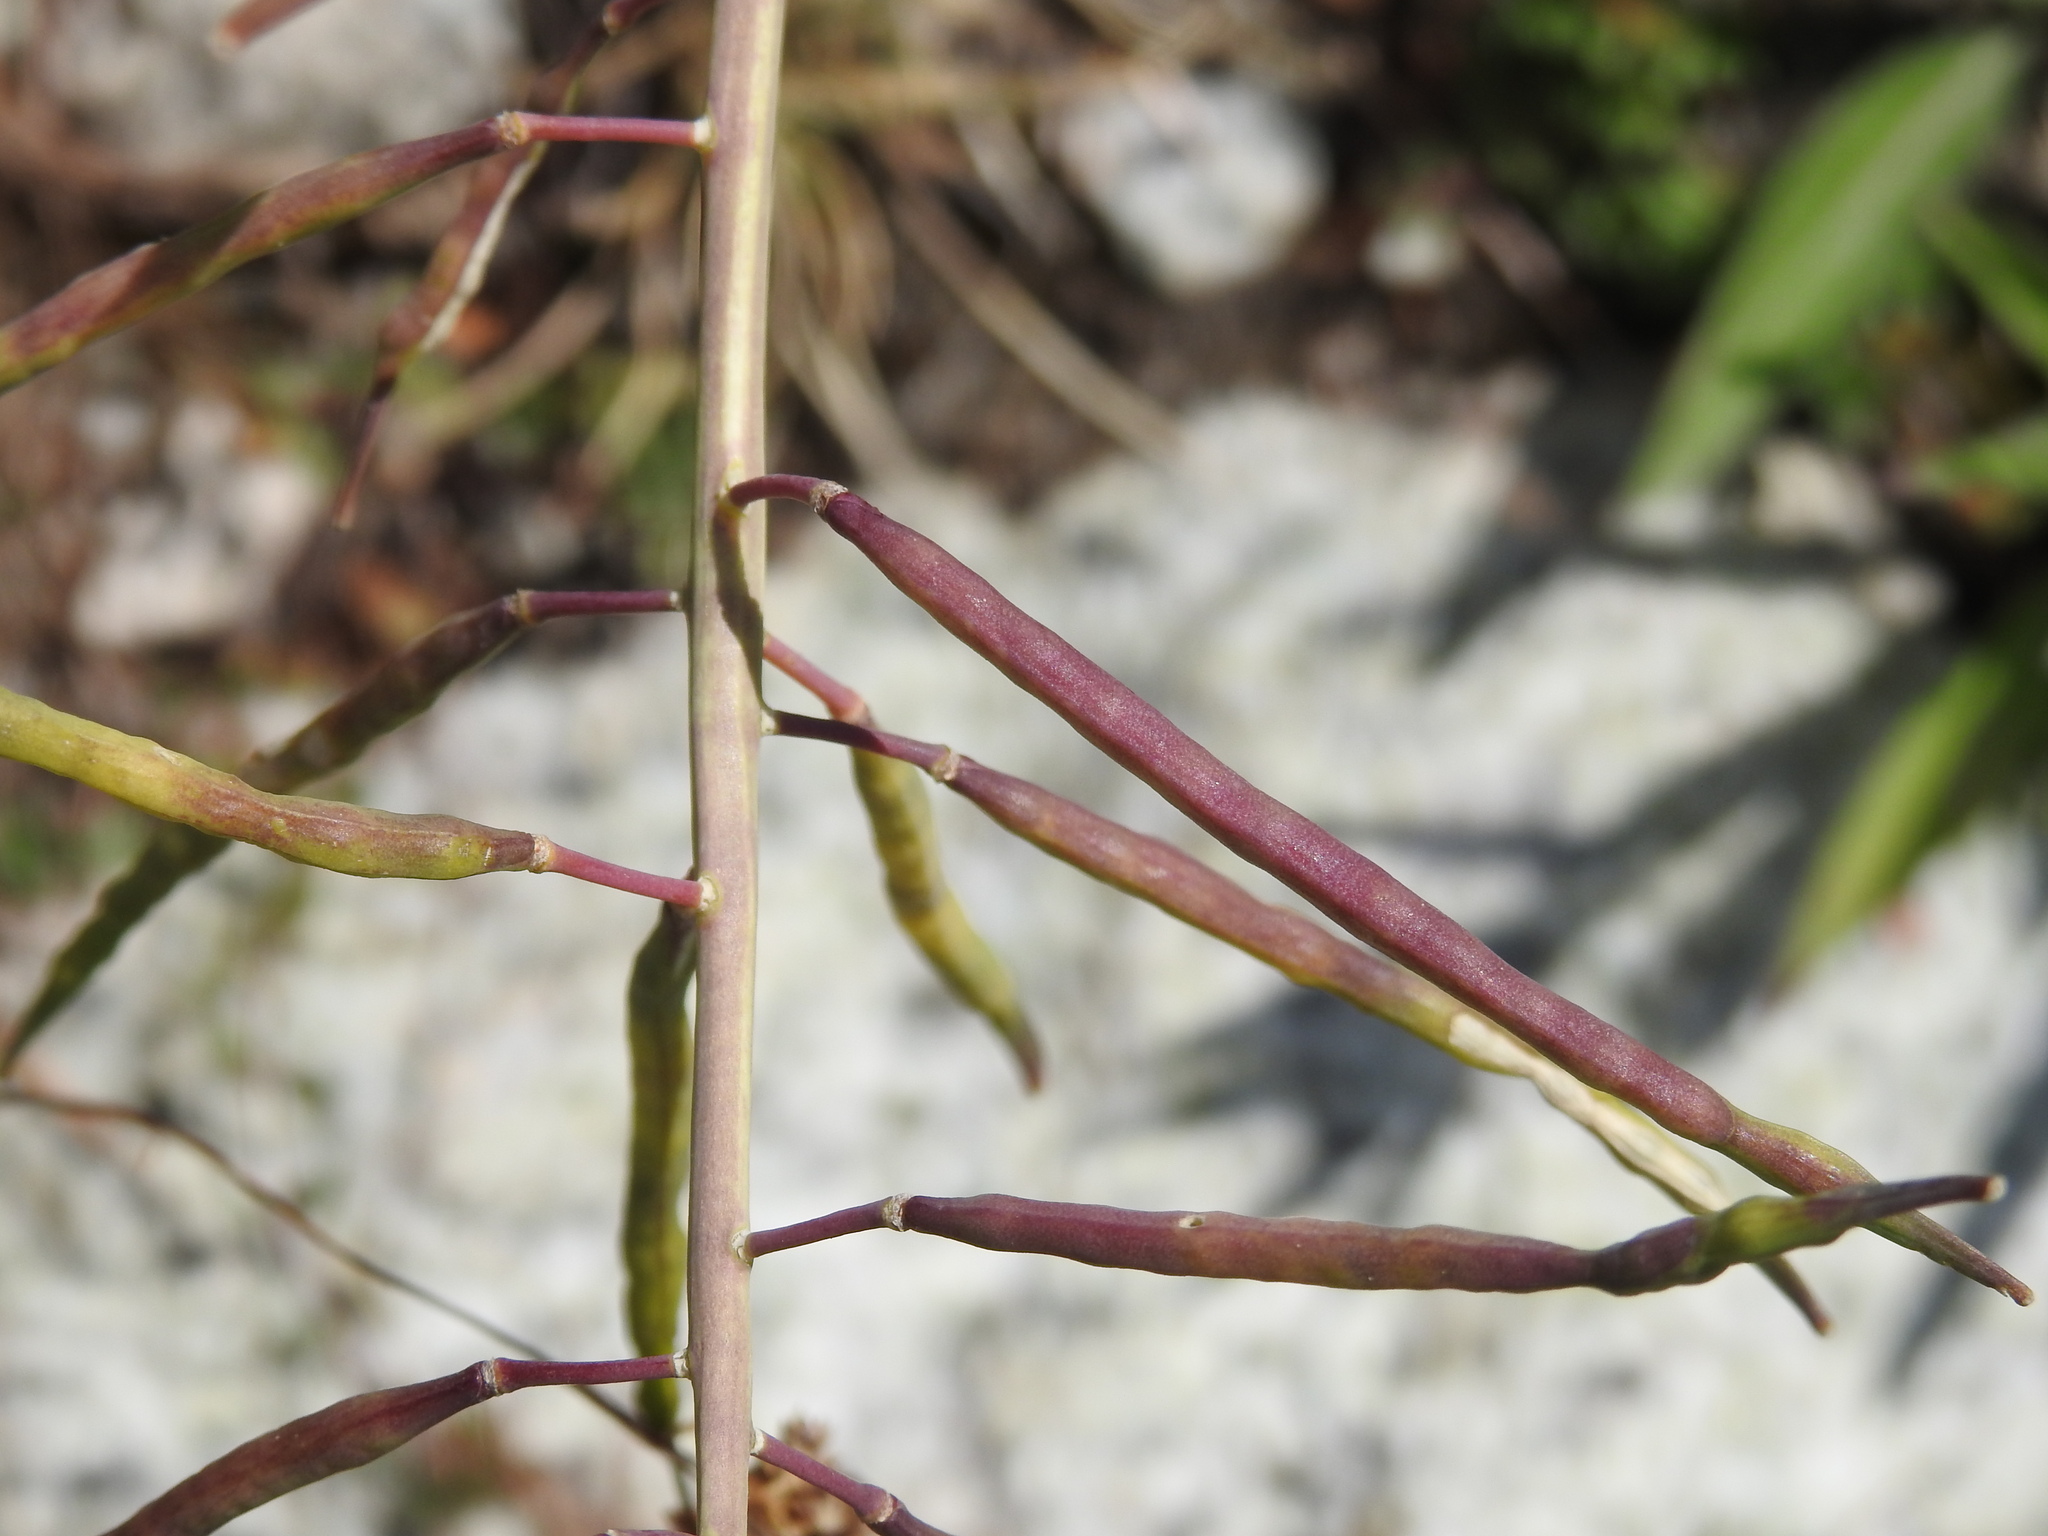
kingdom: Plantae
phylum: Tracheophyta
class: Magnoliopsida
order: Brassicales
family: Brassicaceae
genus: Coincya
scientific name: Coincya richeri
